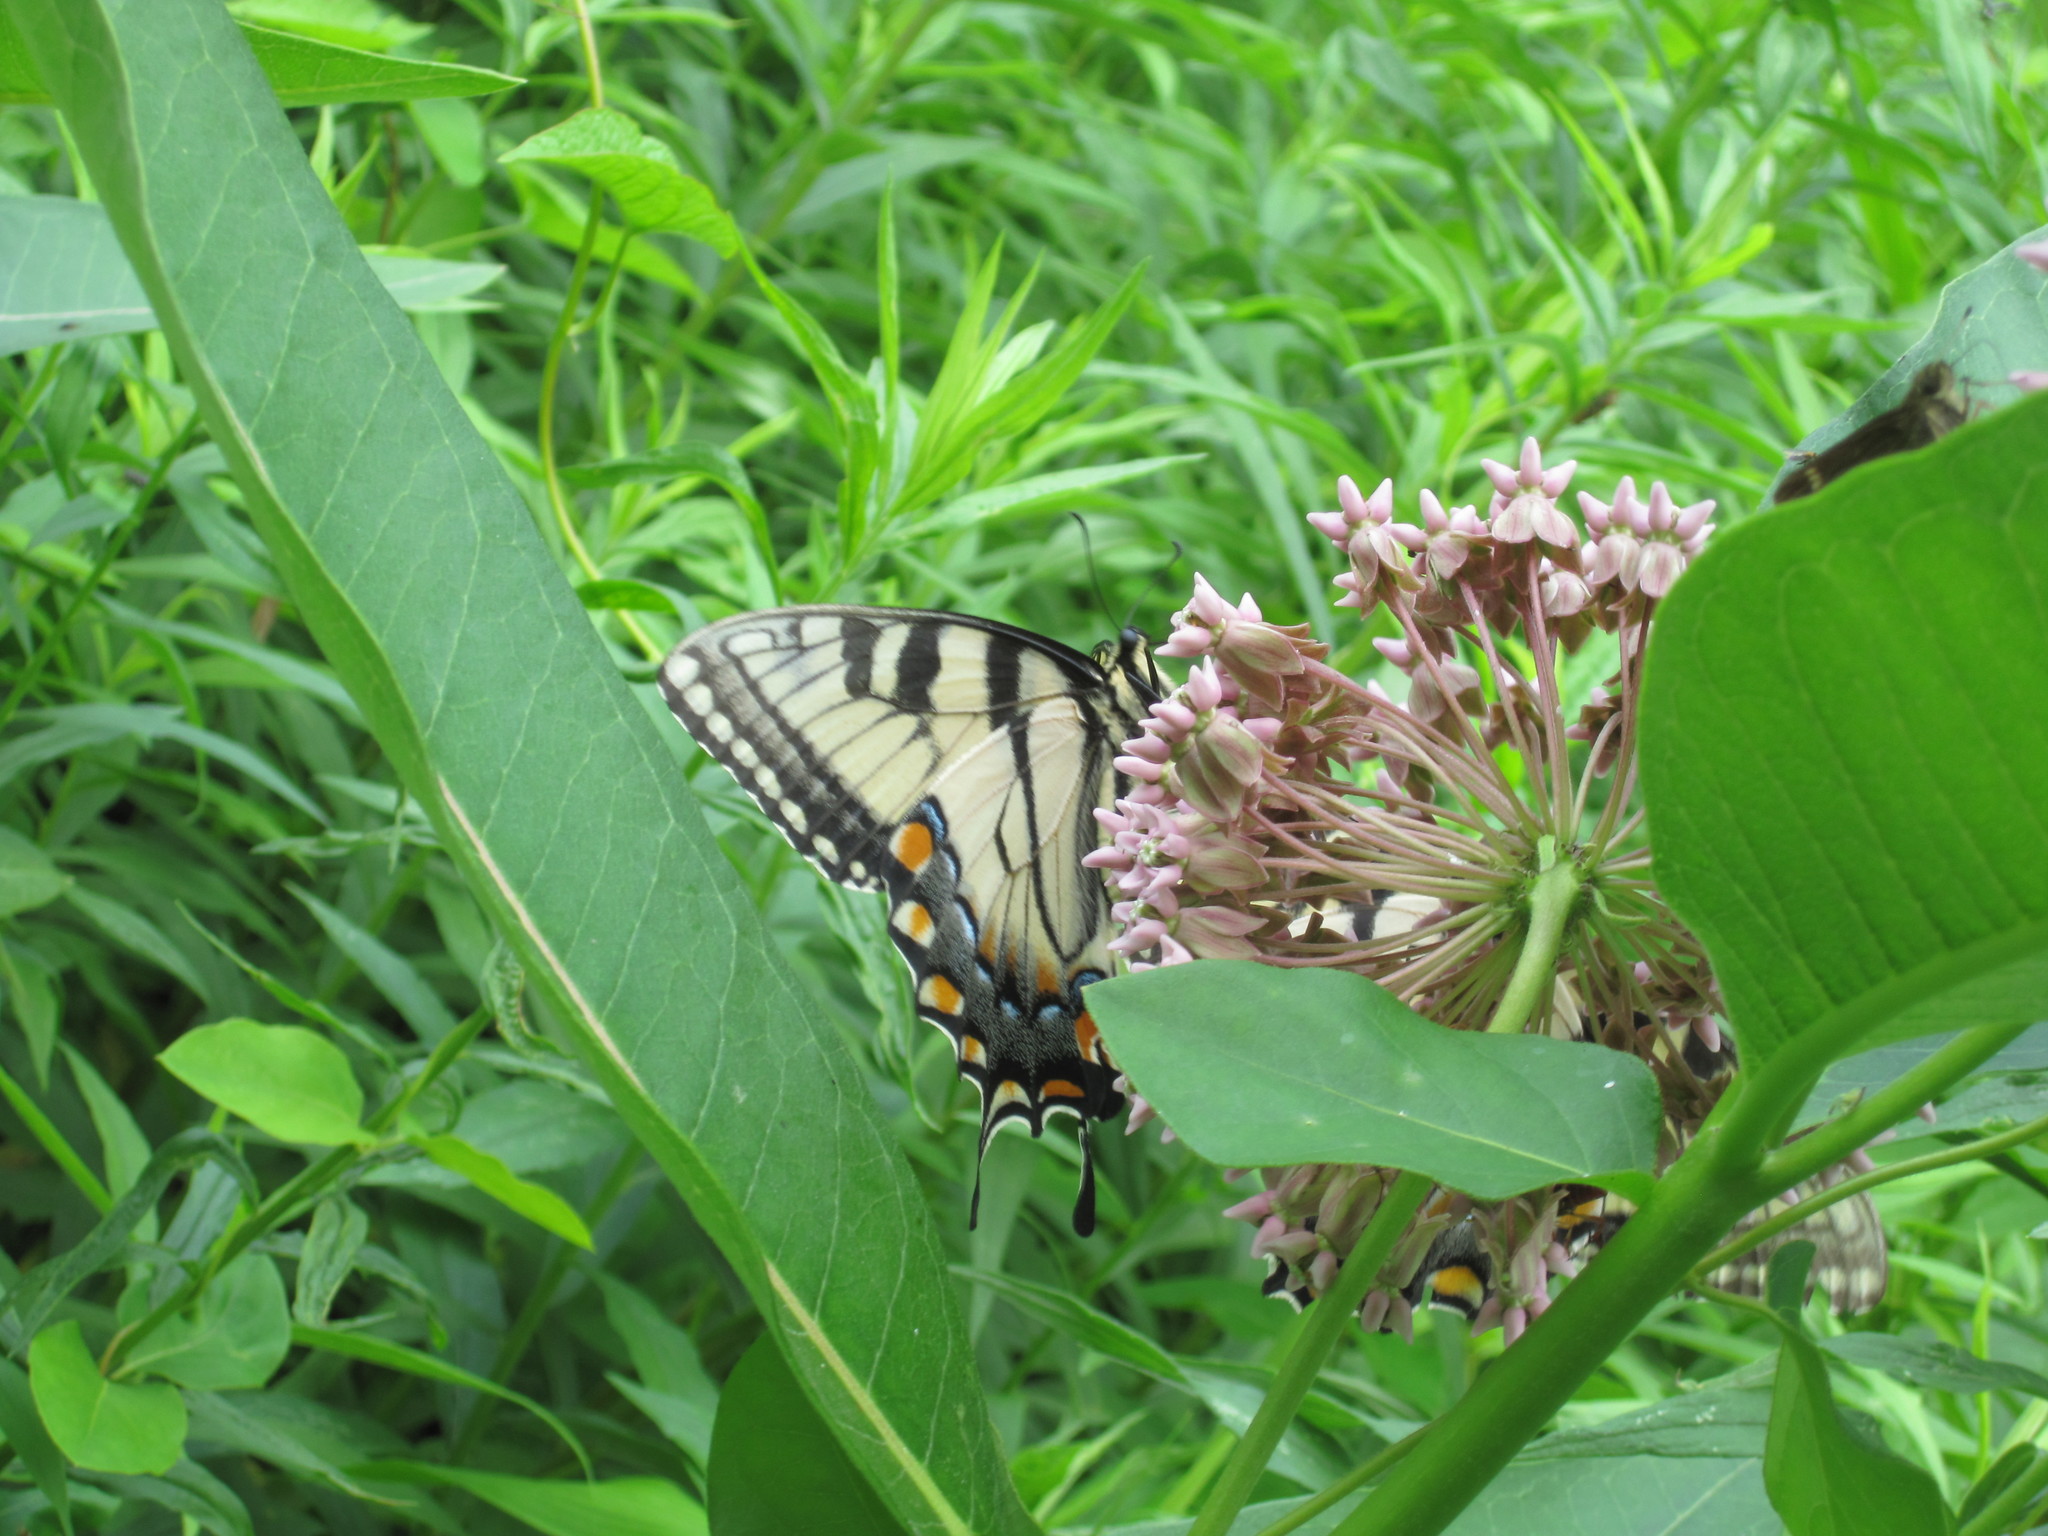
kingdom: Animalia
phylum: Arthropoda
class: Insecta
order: Lepidoptera
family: Papilionidae
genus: Papilio
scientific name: Papilio glaucus
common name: Tiger swallowtail
